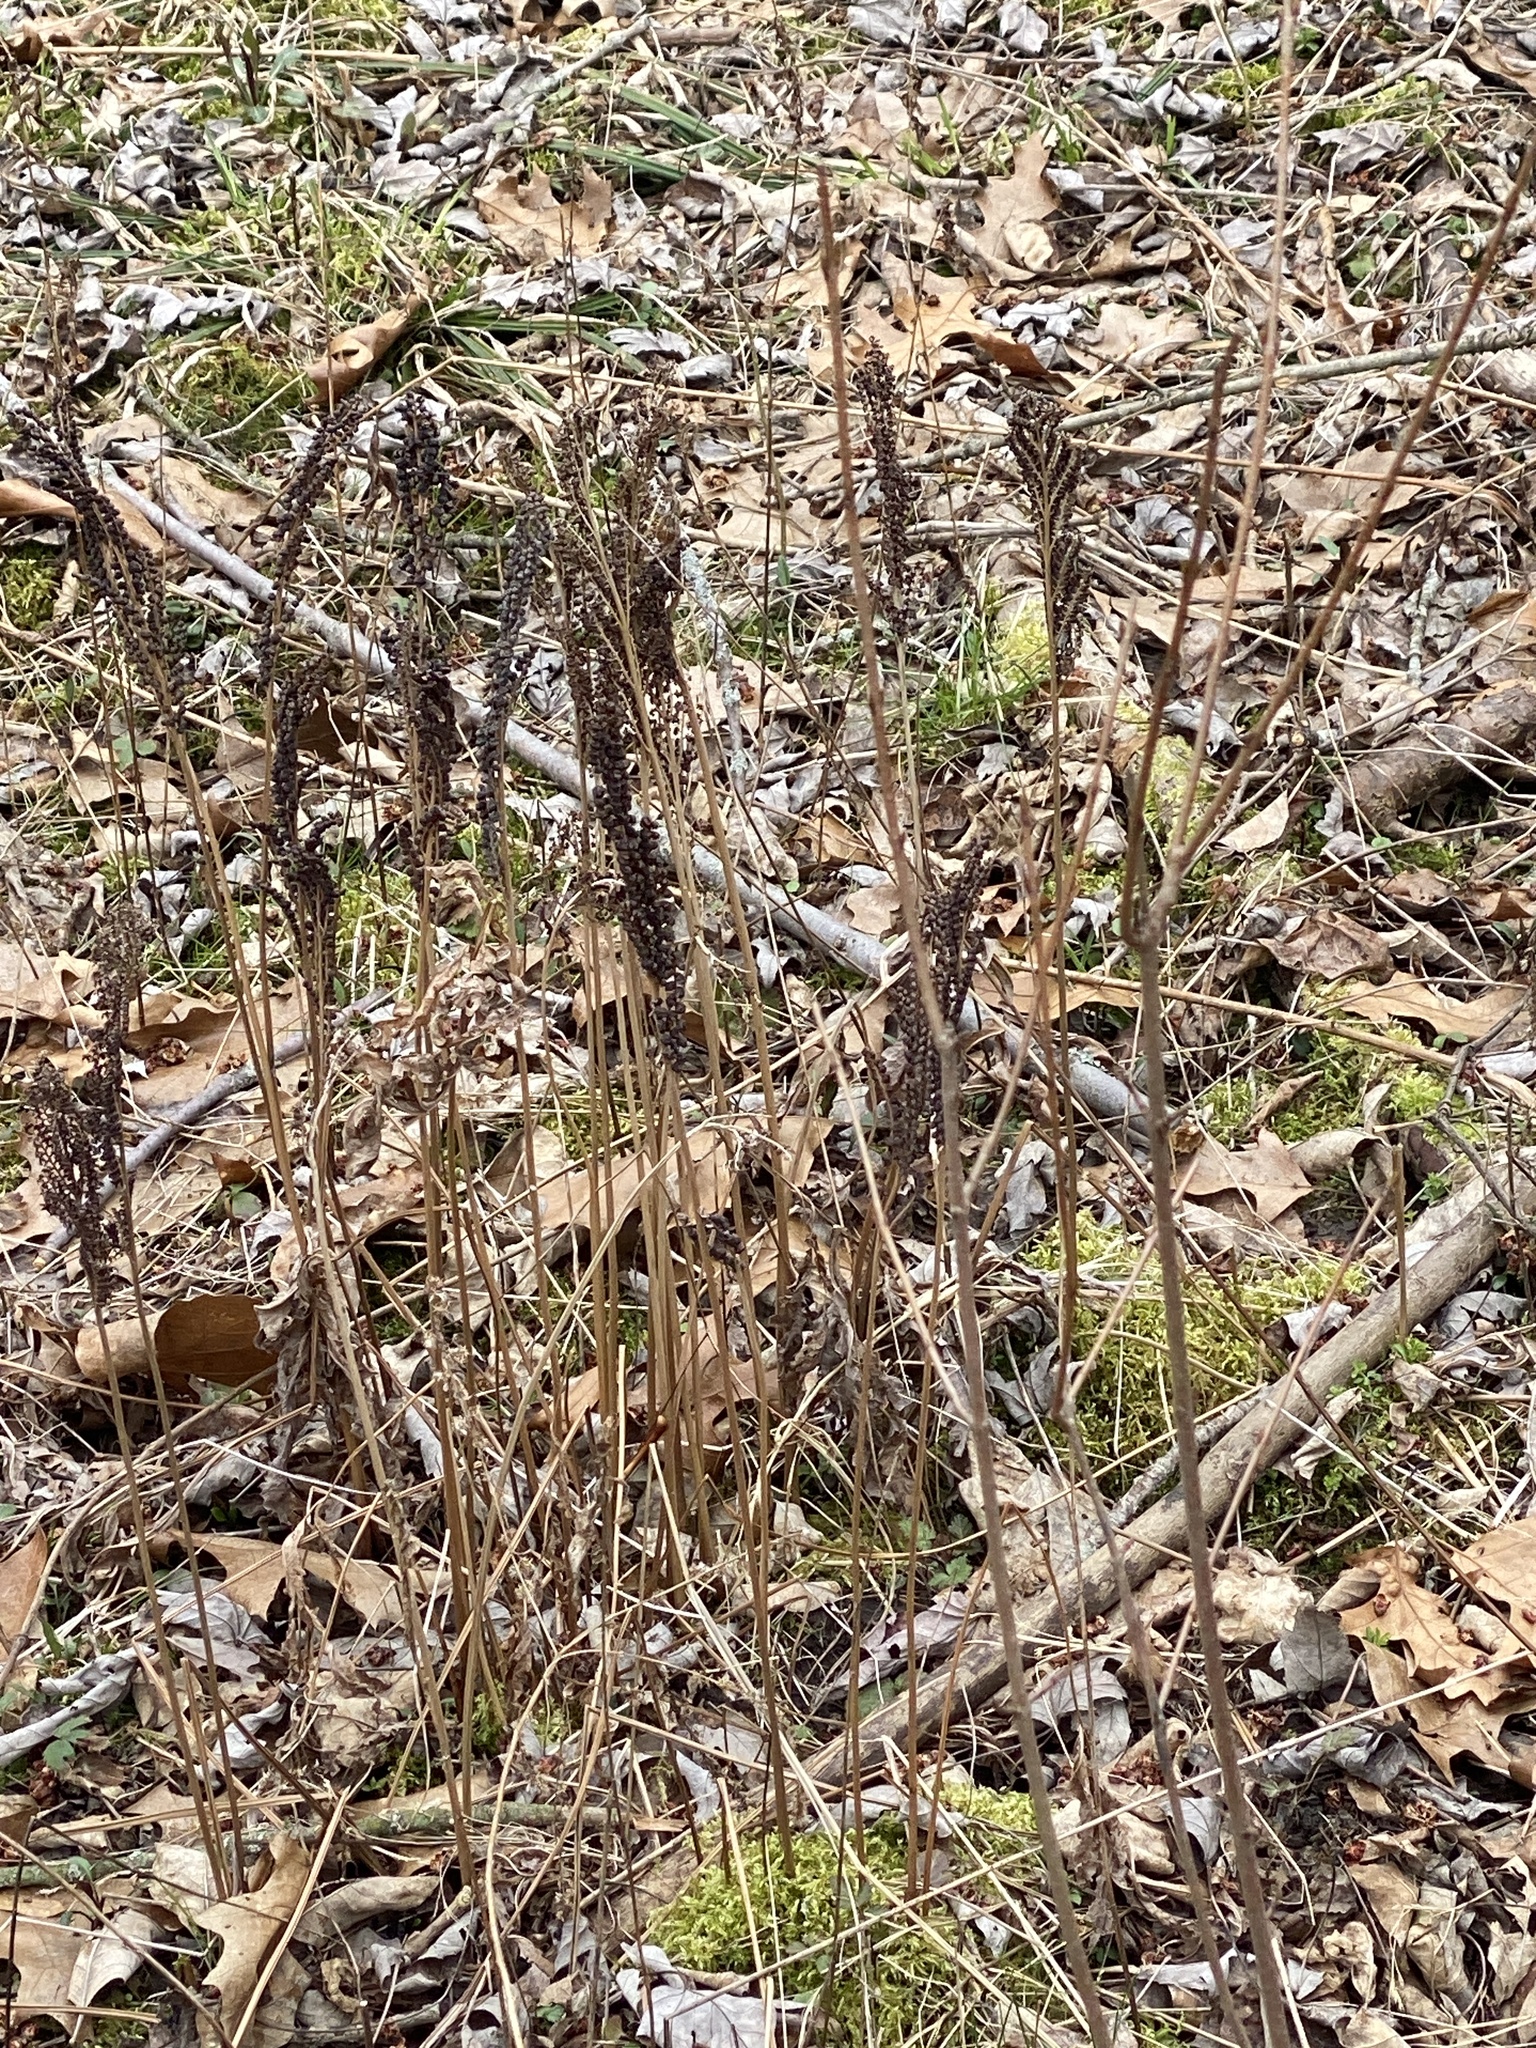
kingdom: Plantae
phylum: Tracheophyta
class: Polypodiopsida
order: Polypodiales
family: Onocleaceae
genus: Onoclea
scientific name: Onoclea sensibilis
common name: Sensitive fern
